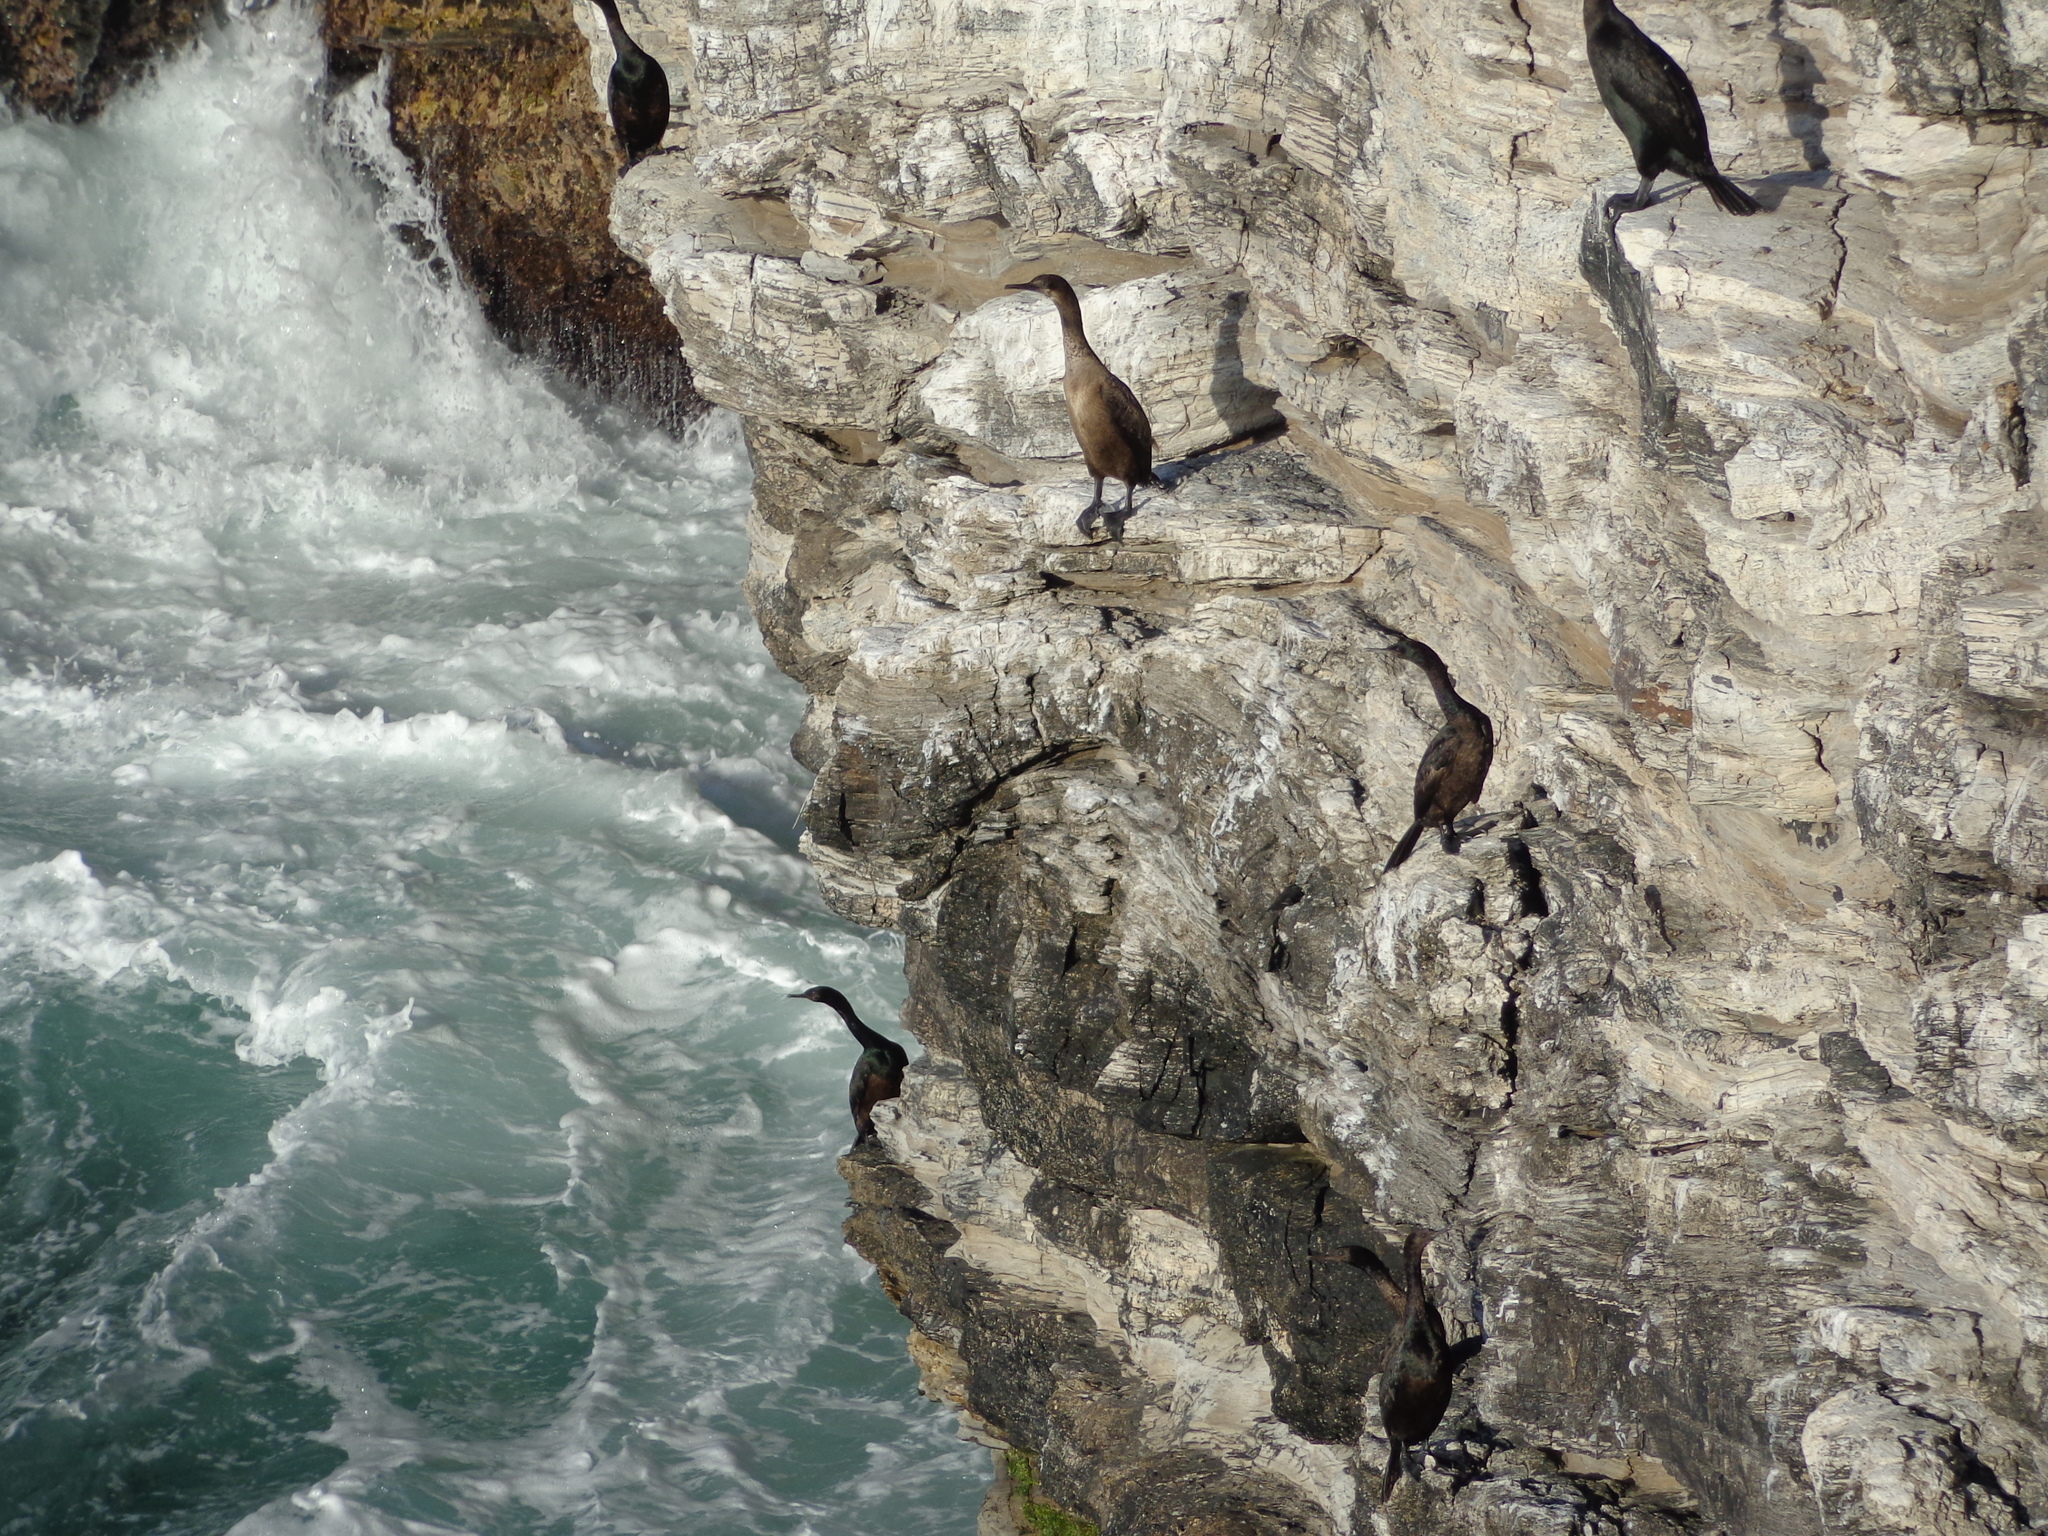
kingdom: Animalia
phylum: Chordata
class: Aves
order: Suliformes
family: Phalacrocoracidae
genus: Phalacrocorax
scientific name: Phalacrocorax pelagicus
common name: Pelagic cormorant
